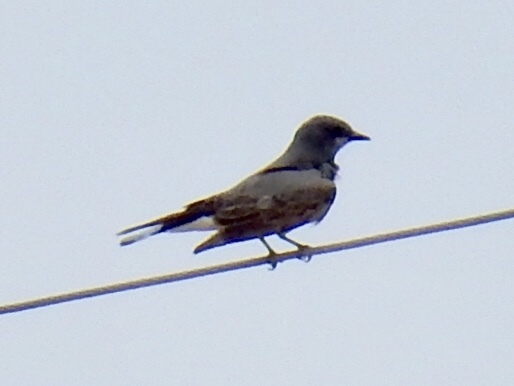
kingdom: Animalia
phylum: Chordata
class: Aves
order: Passeriformes
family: Tyrannidae
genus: Tyrannus
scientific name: Tyrannus vociferans
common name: Cassin's kingbird
